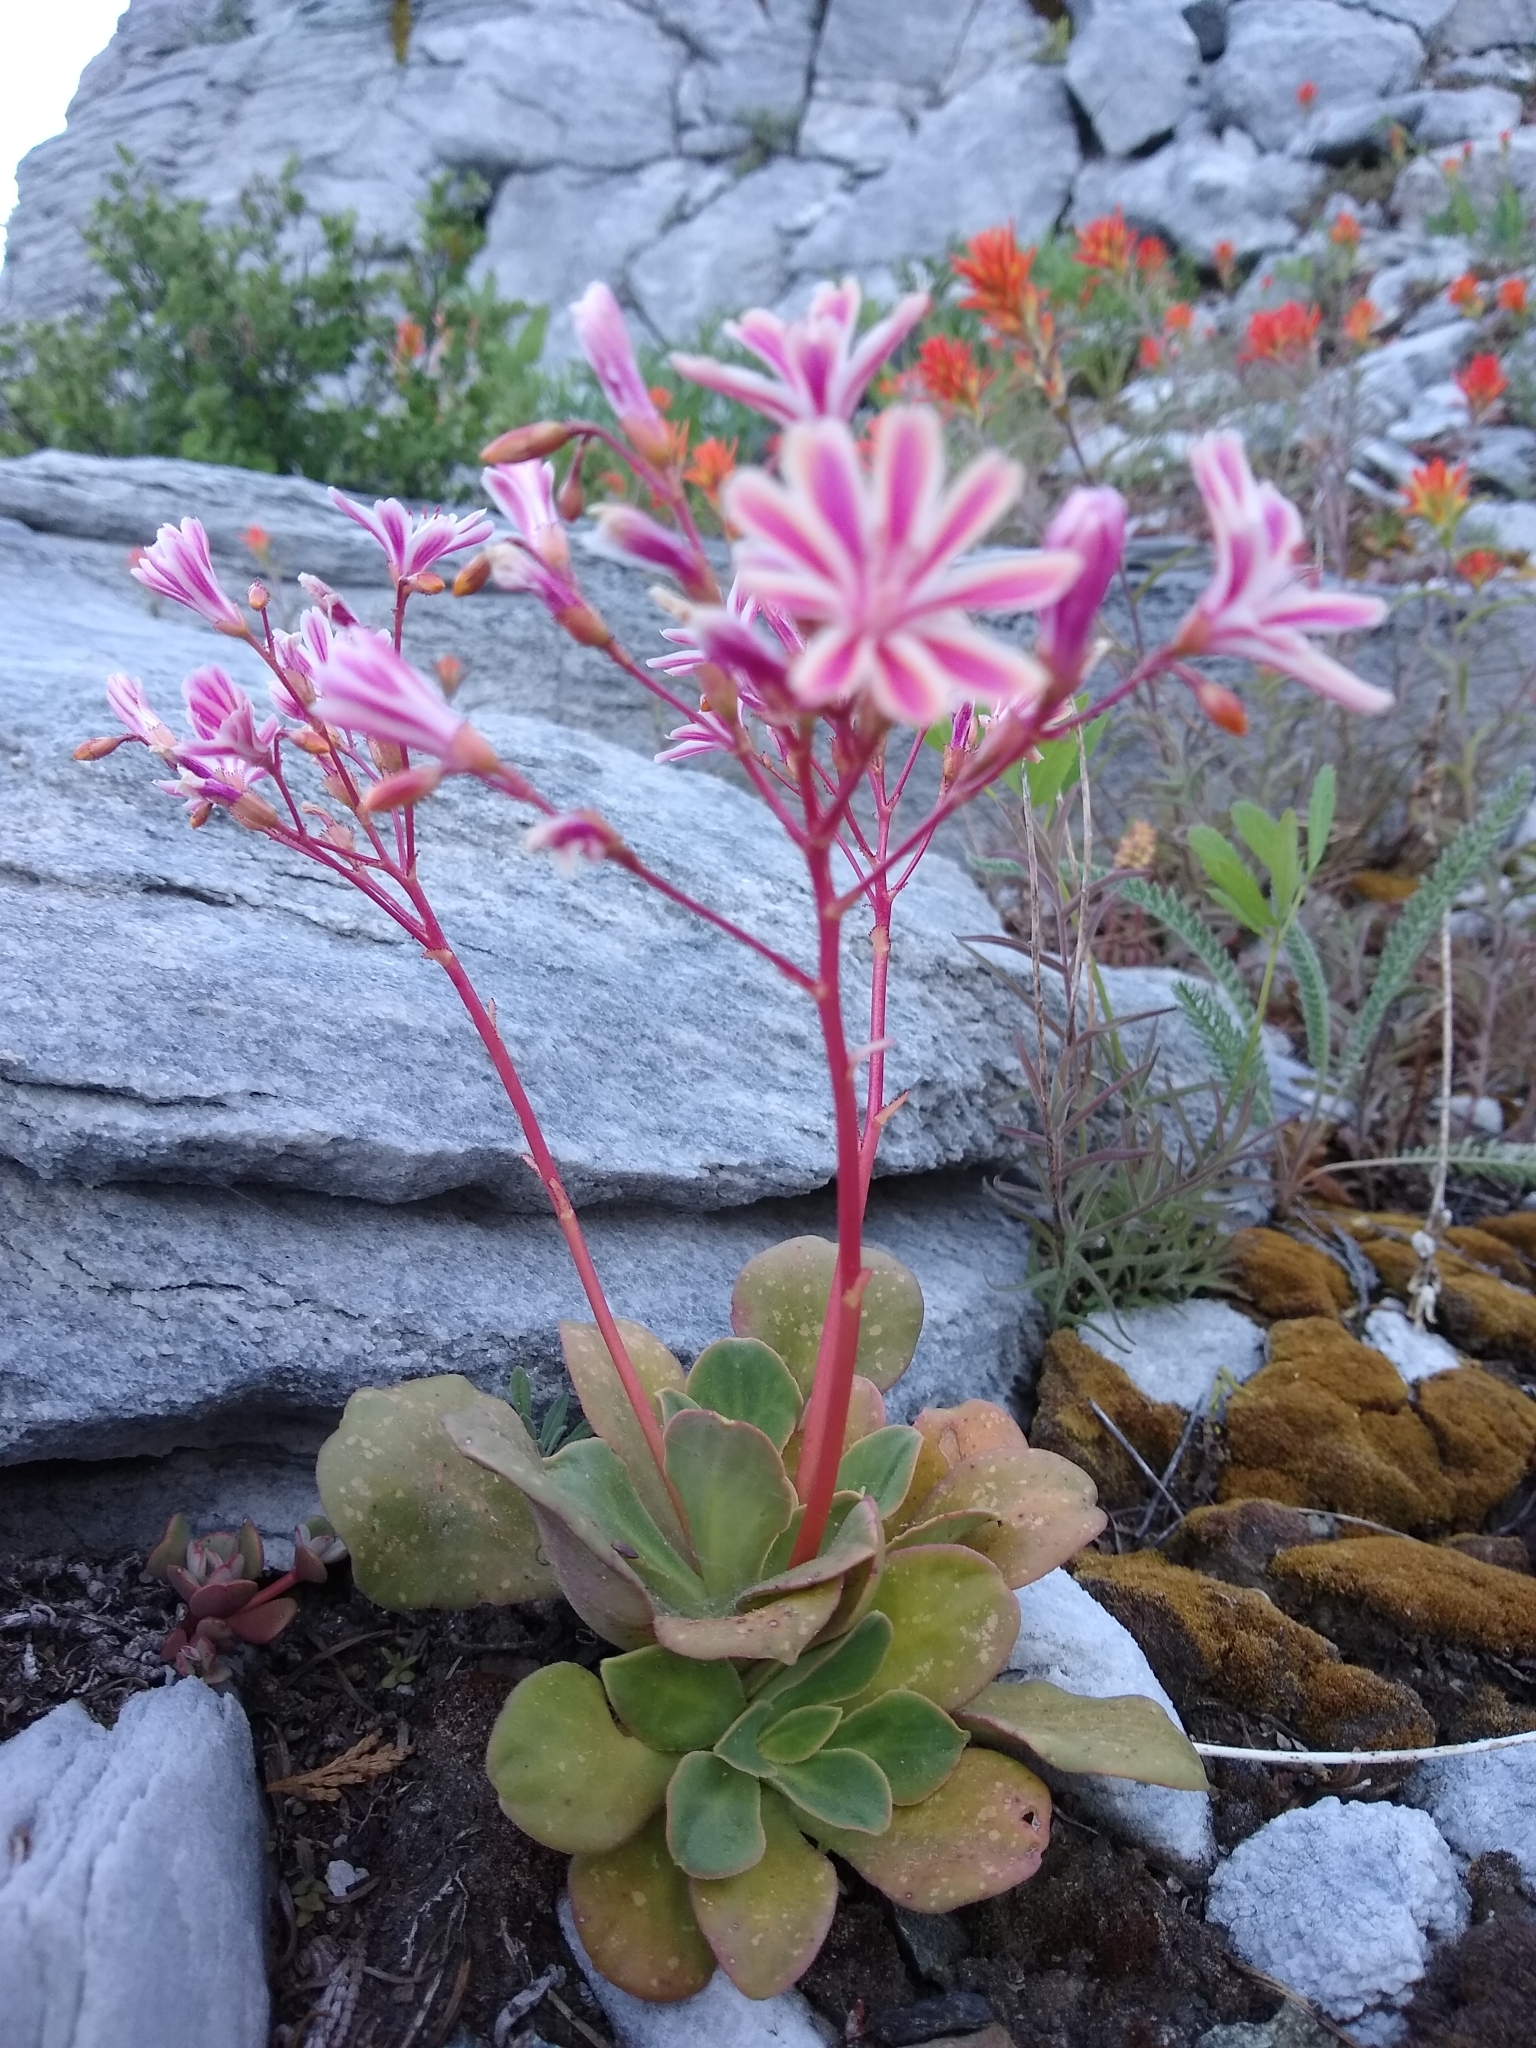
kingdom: Plantae
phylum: Tracheophyta
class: Magnoliopsida
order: Caryophyllales
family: Montiaceae
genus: Lewisia
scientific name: Lewisia cotyledon
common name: Siskiyou lewisia
